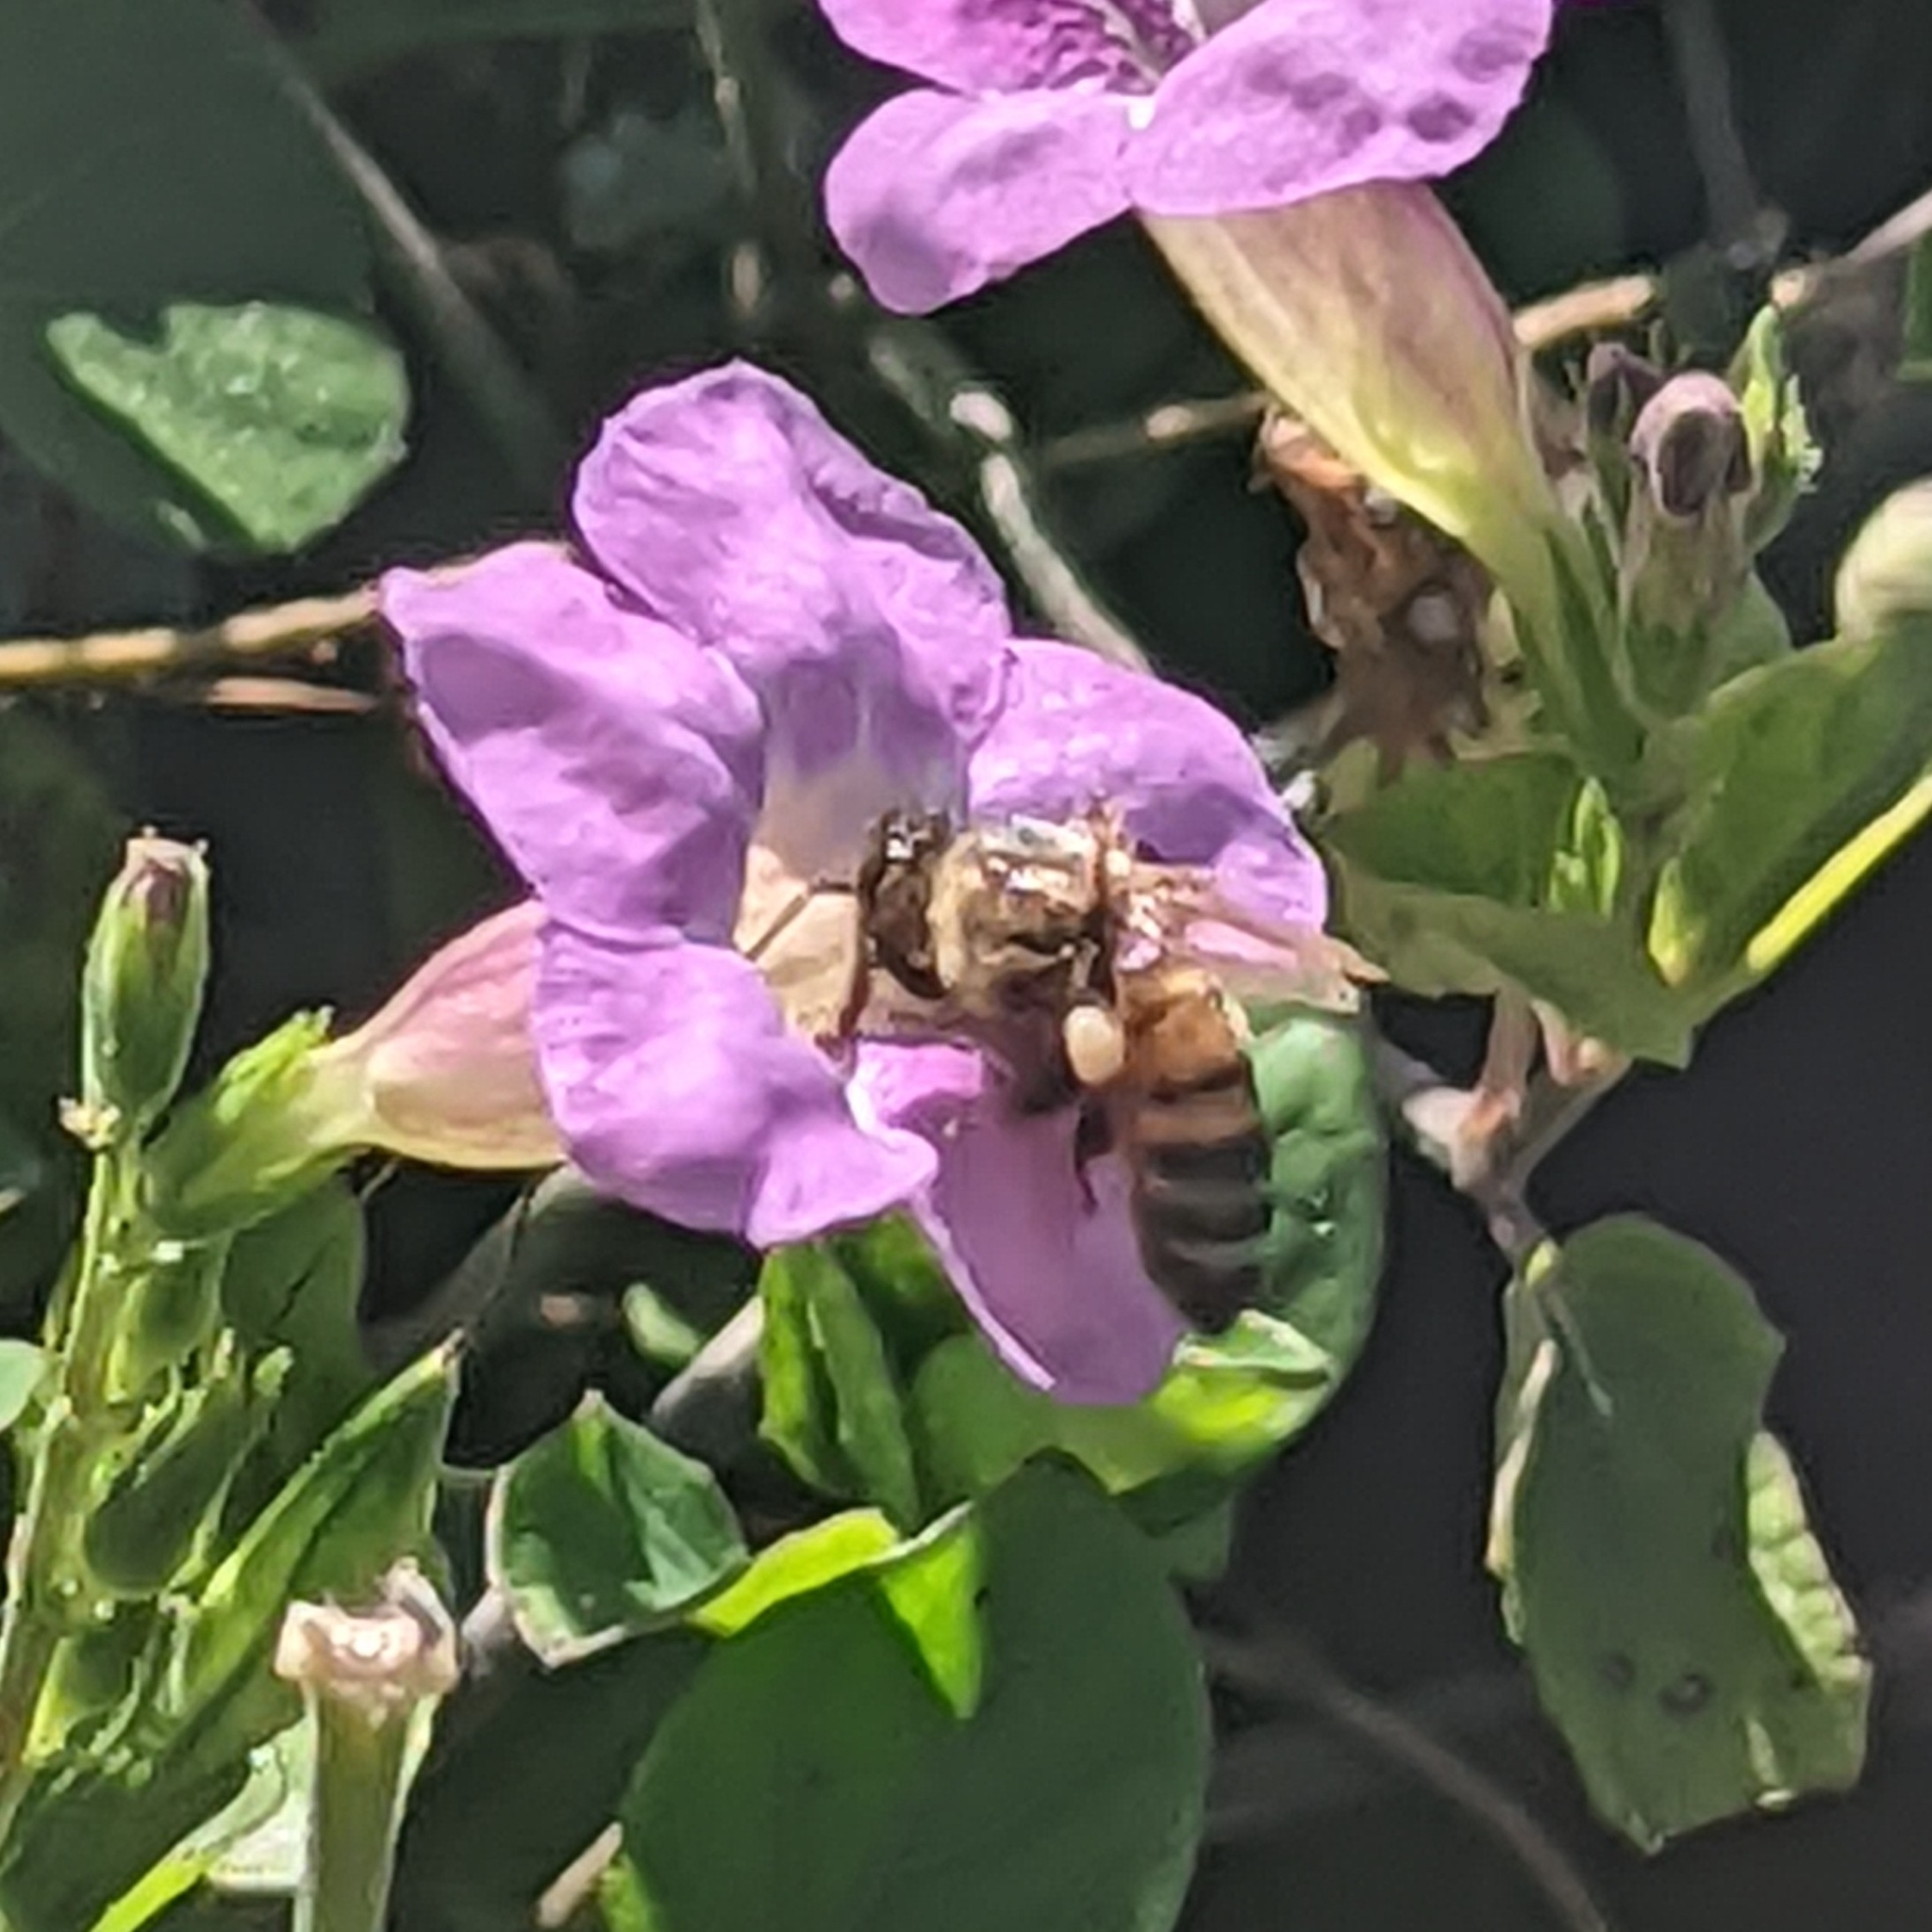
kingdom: Animalia
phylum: Arthropoda
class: Insecta
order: Hymenoptera
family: Apidae
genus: Apis
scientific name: Apis mellifera
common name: Honey bee
